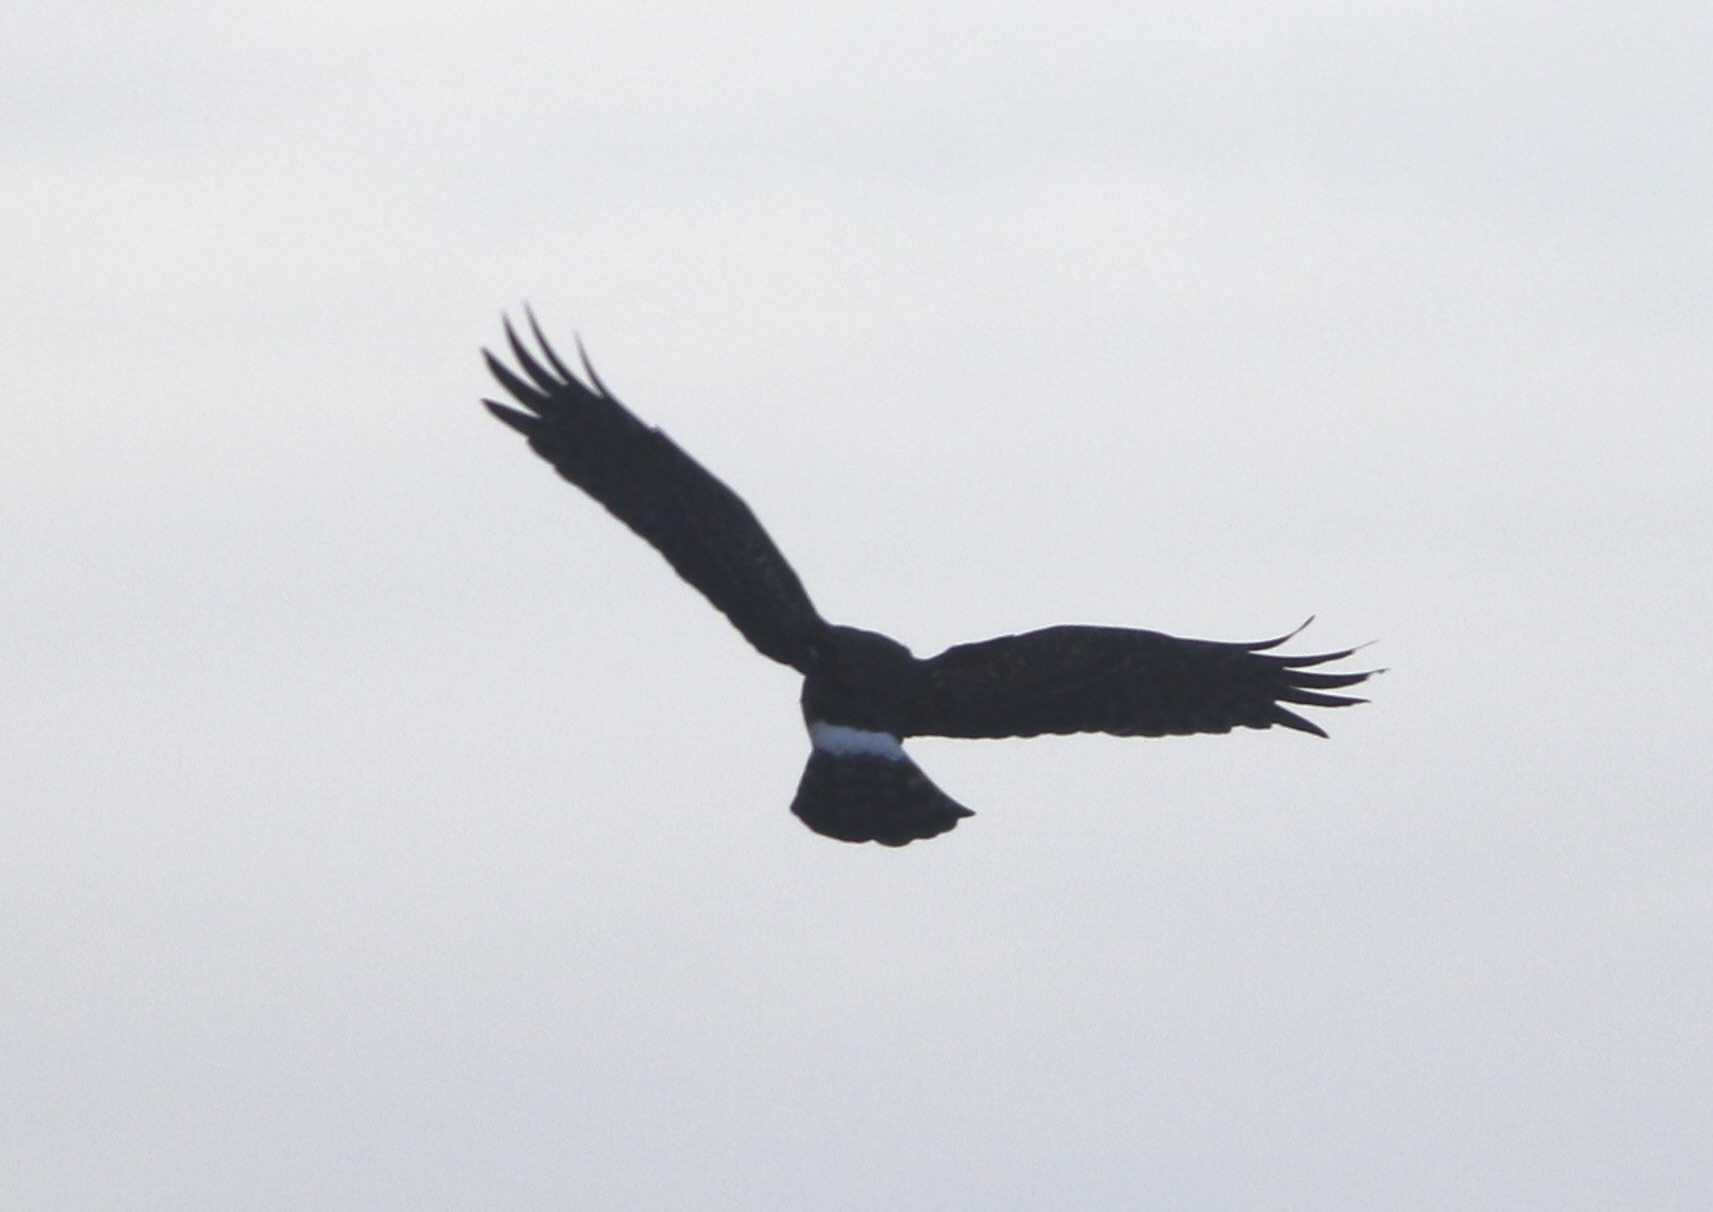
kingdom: Animalia
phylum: Chordata
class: Aves
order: Accipitriformes
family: Accipitridae
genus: Circus
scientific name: Circus cyaneus
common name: Hen harrier
